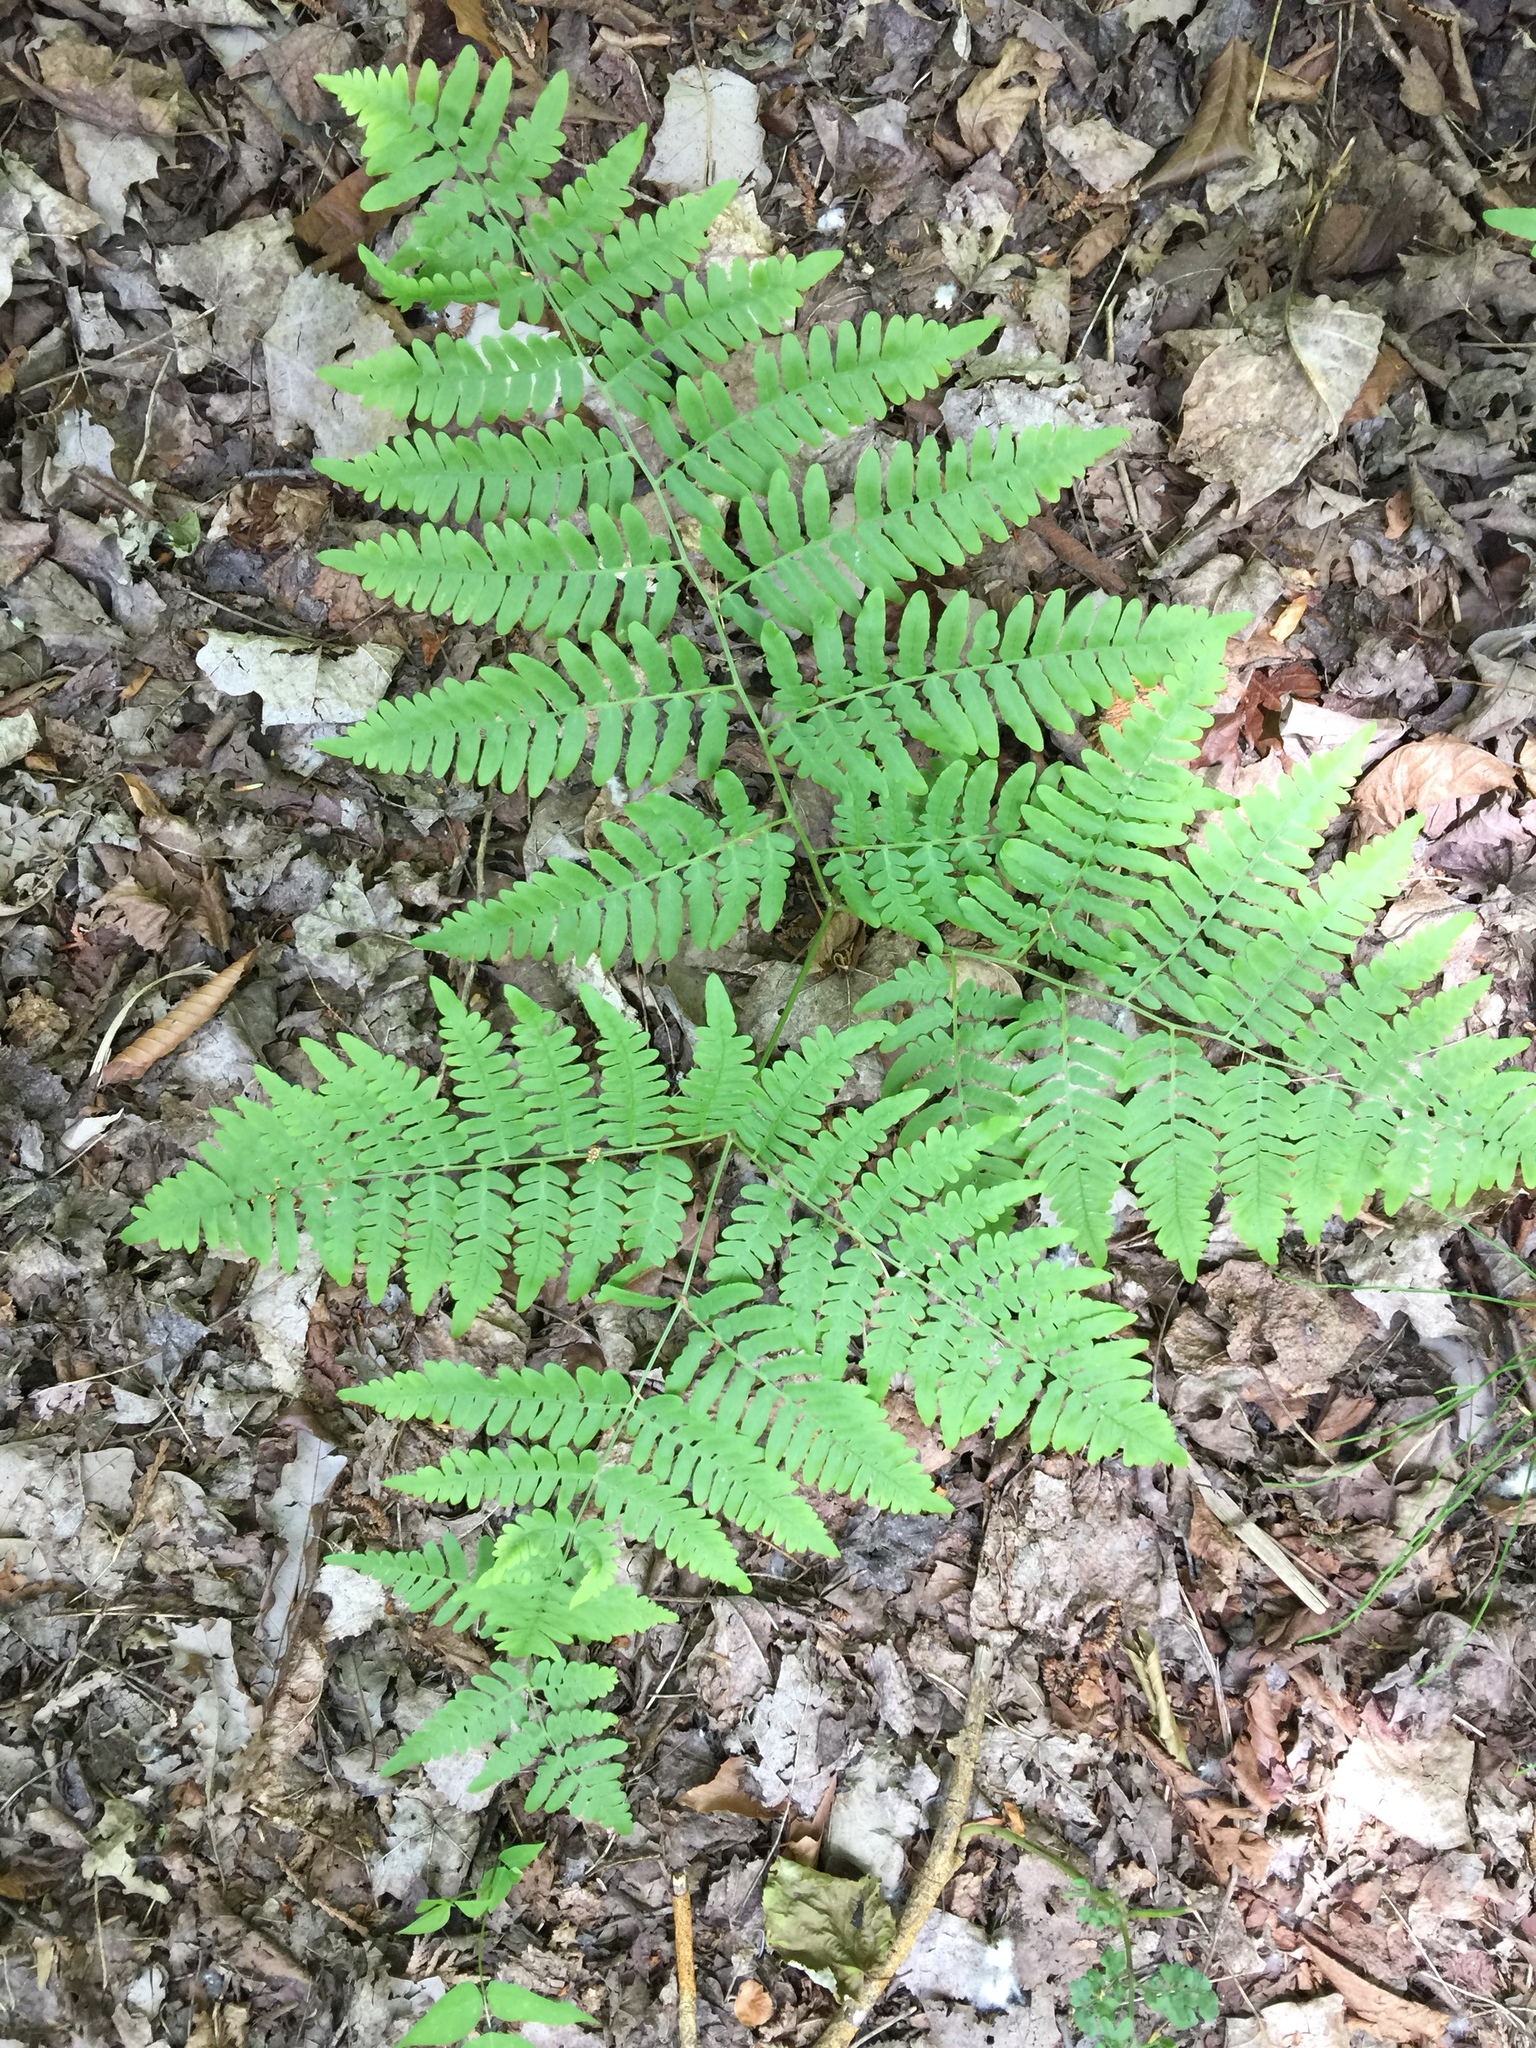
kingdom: Plantae
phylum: Tracheophyta
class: Polypodiopsida
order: Polypodiales
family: Dennstaedtiaceae
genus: Pteridium
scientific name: Pteridium aquilinum
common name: Bracken
